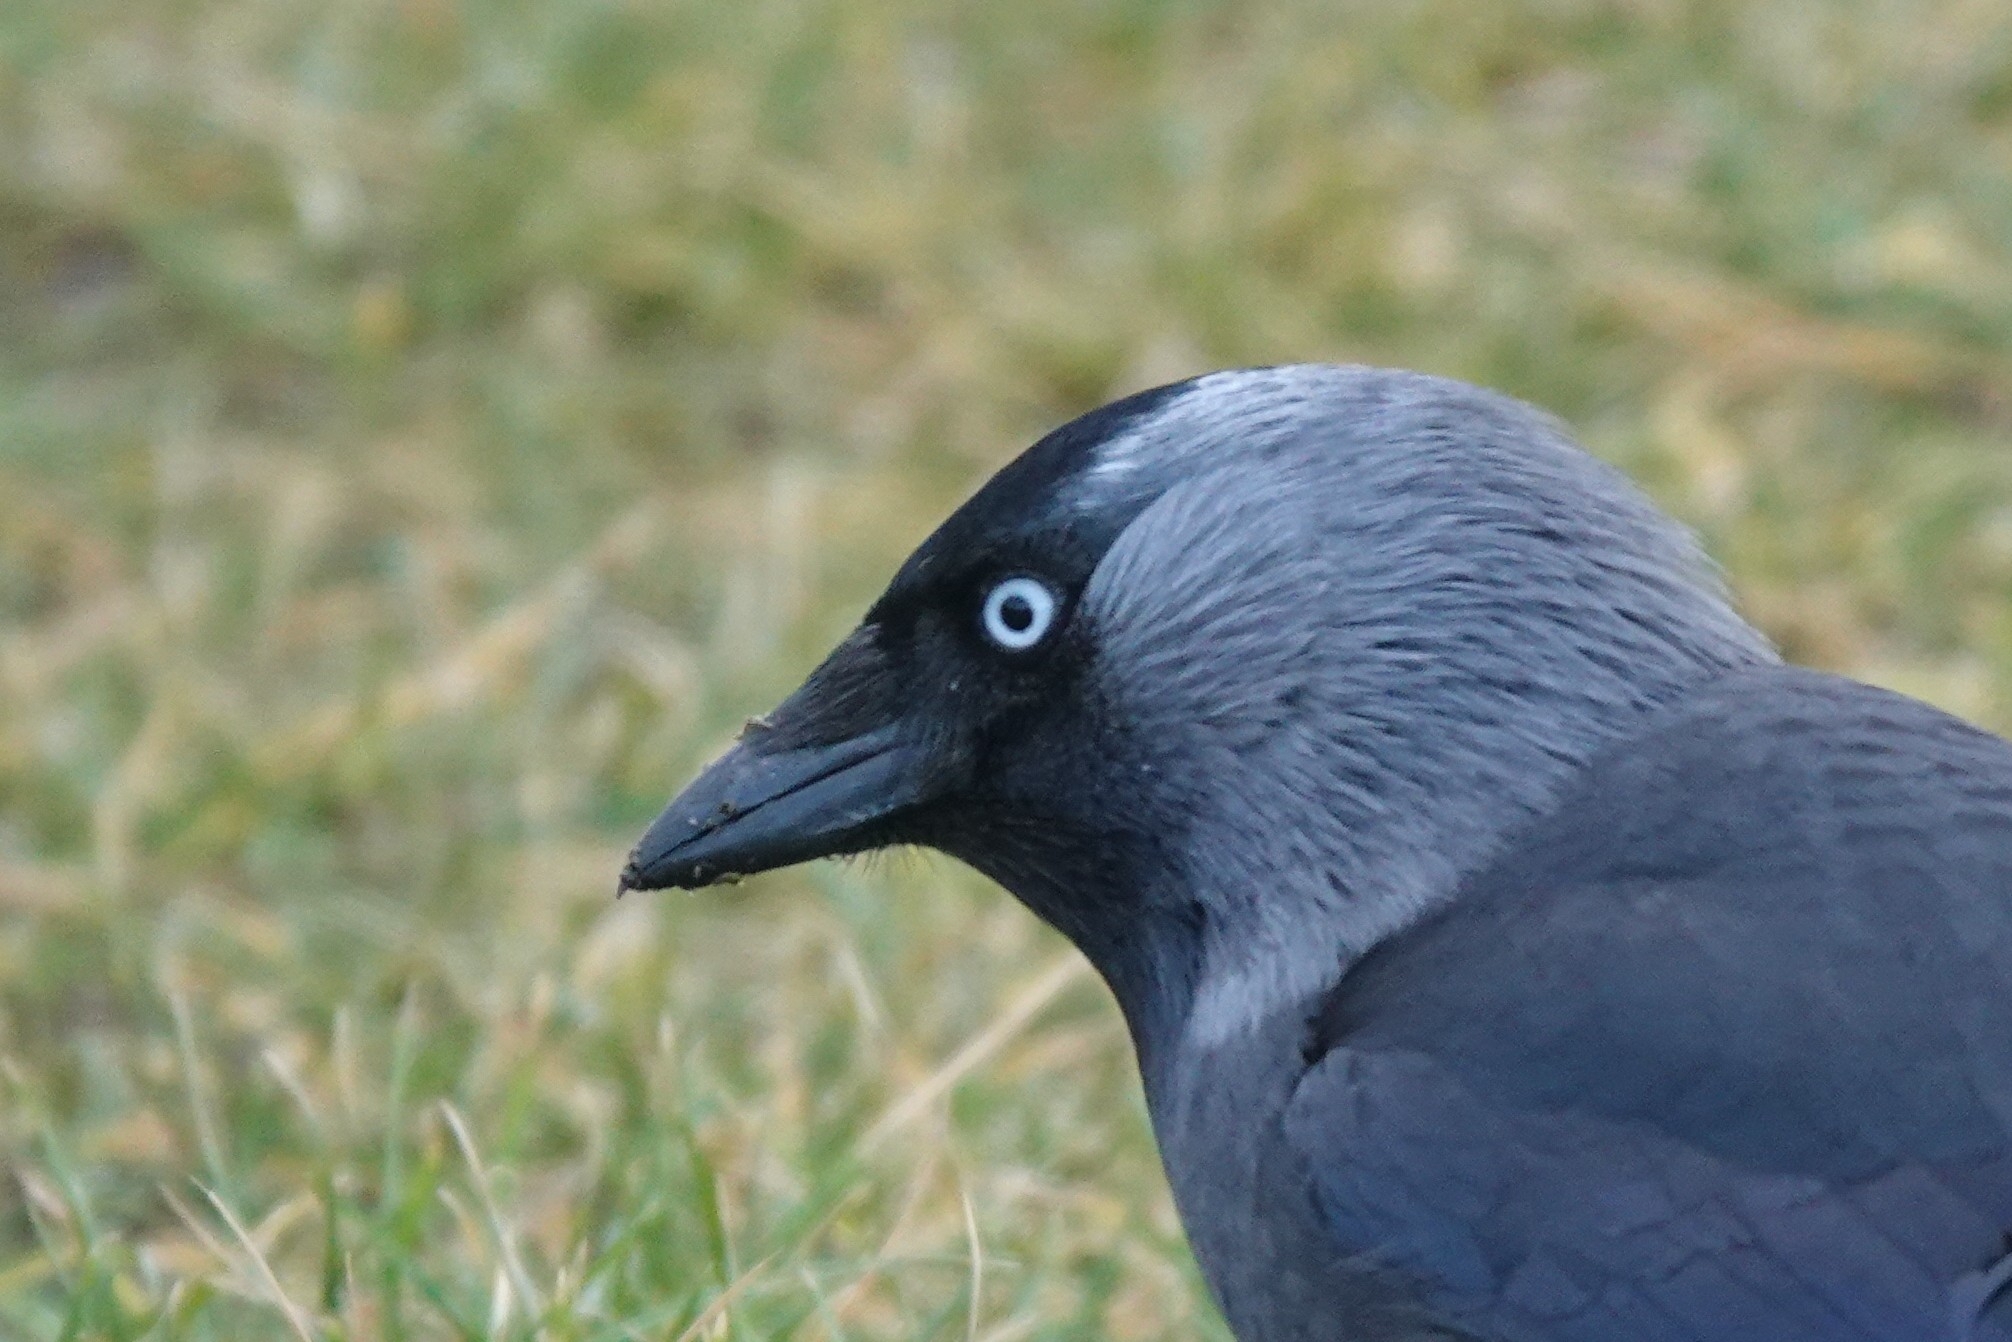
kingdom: Animalia
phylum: Chordata
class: Aves
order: Passeriformes
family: Corvidae
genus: Coloeus
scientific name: Coloeus monedula
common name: Western jackdaw
